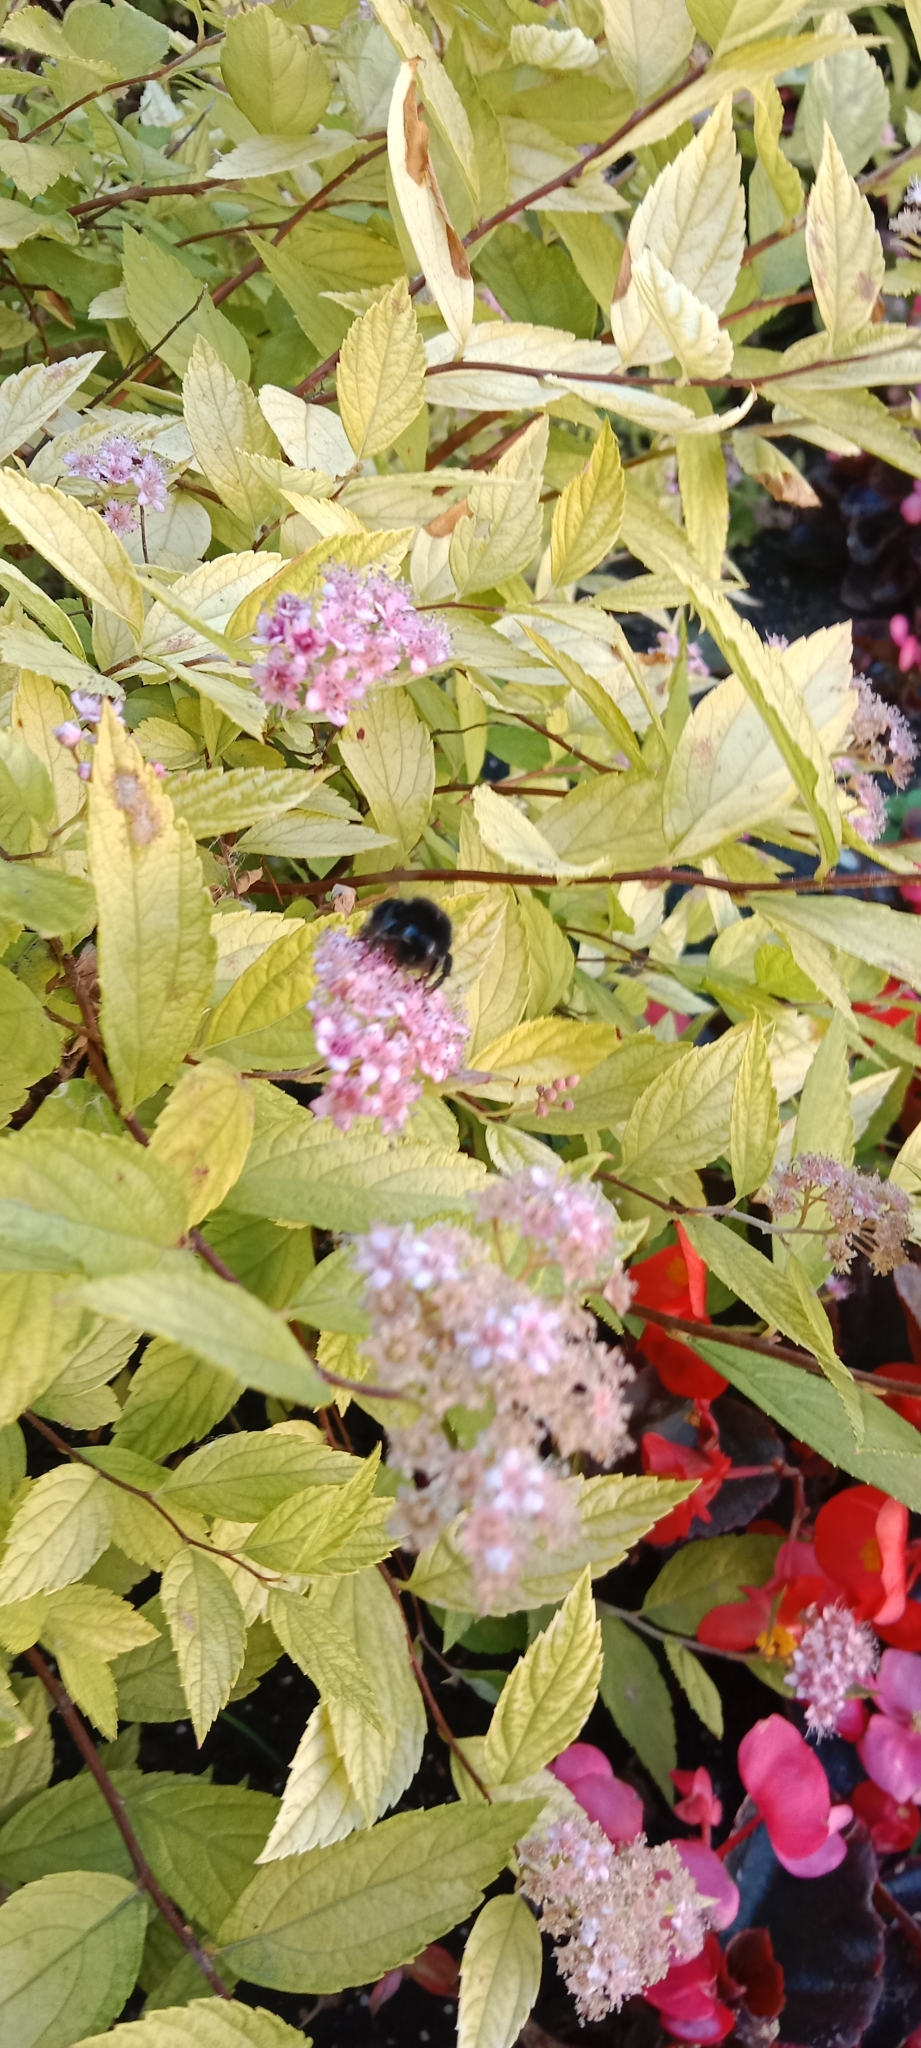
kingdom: Animalia
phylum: Arthropoda
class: Insecta
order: Hymenoptera
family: Apidae
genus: Bombus
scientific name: Bombus lapidarius
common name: Large red-tailed humble-bee
